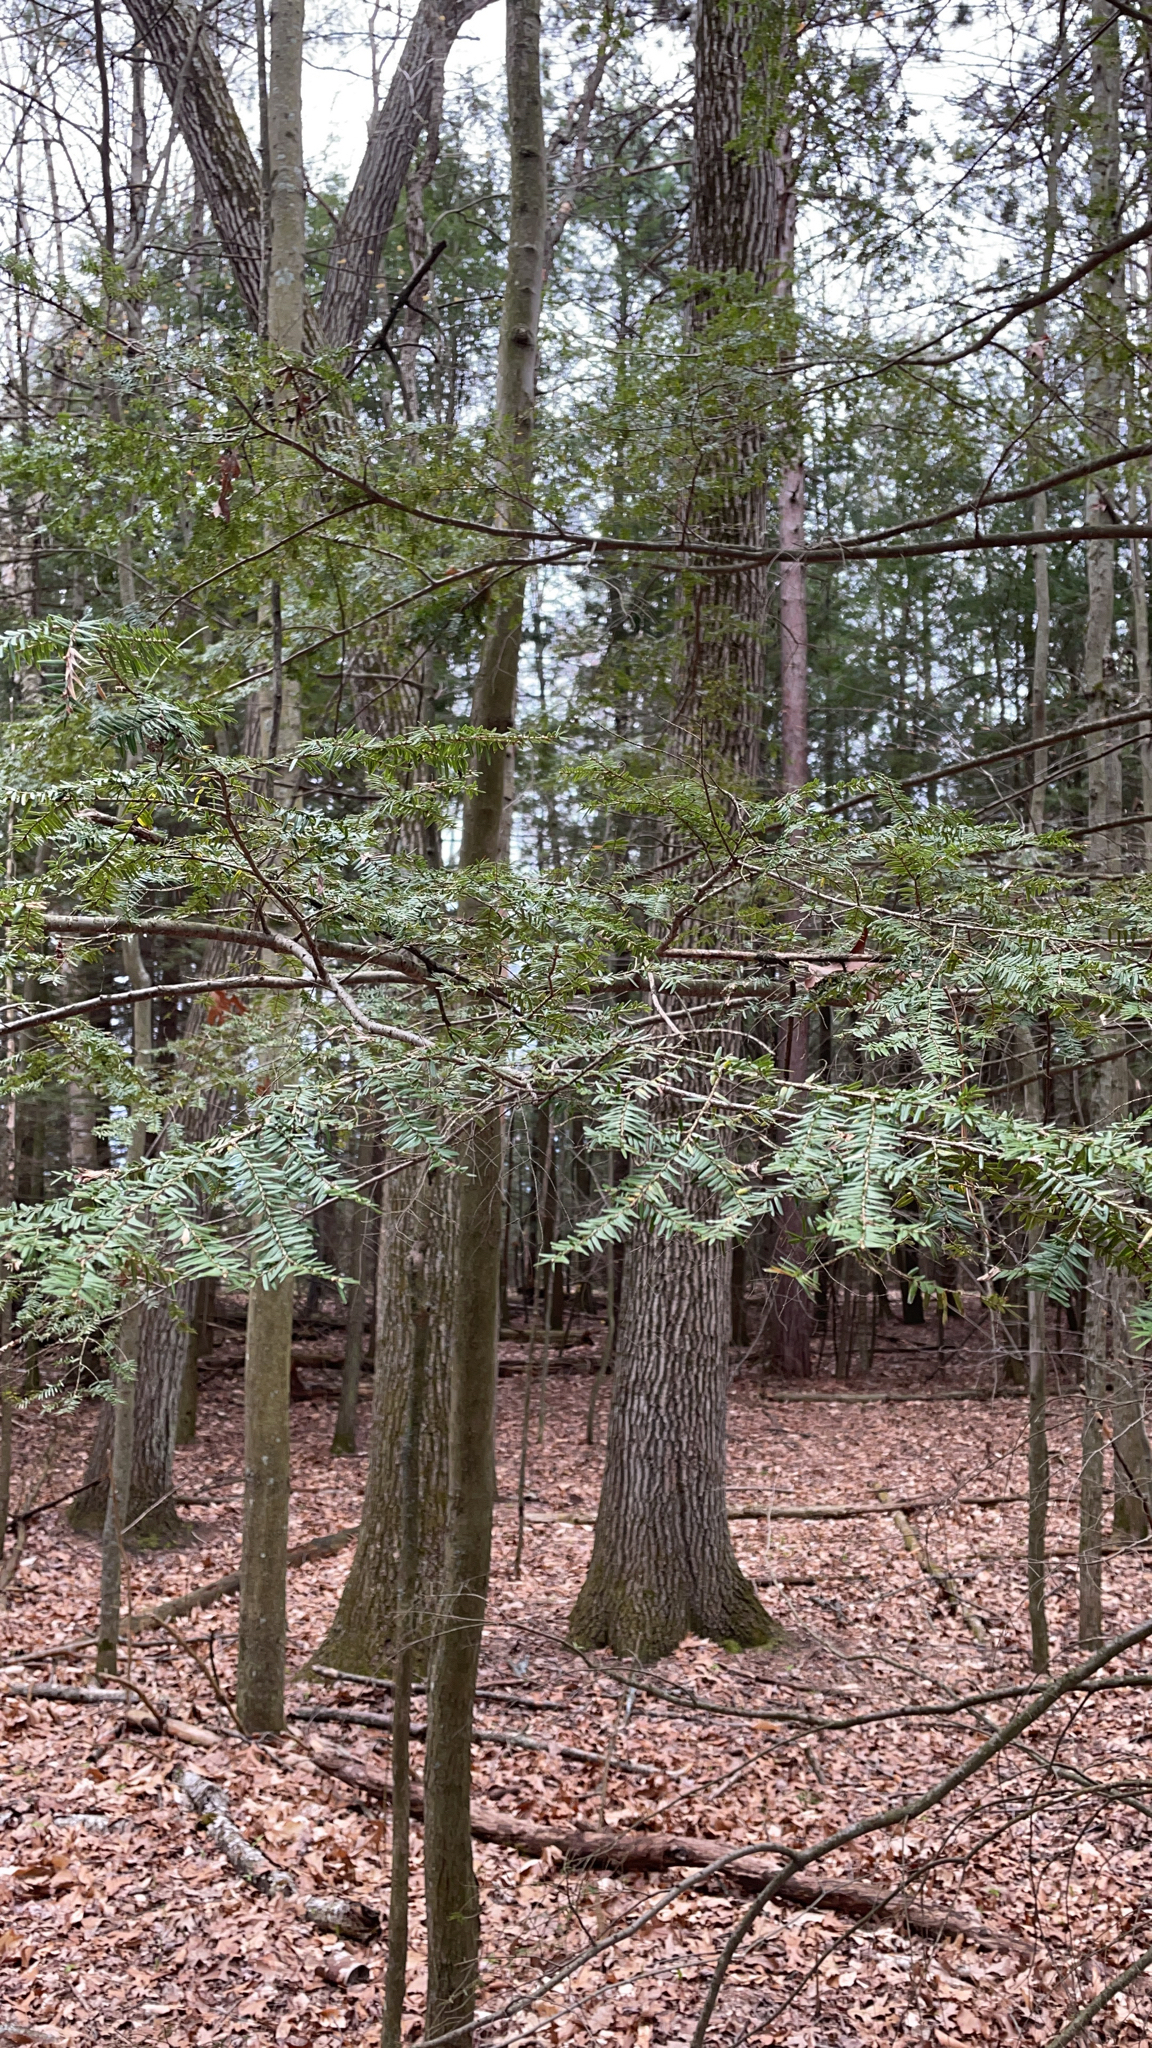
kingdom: Plantae
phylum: Tracheophyta
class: Pinopsida
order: Pinales
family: Pinaceae
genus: Tsuga
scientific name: Tsuga canadensis
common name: Eastern hemlock
